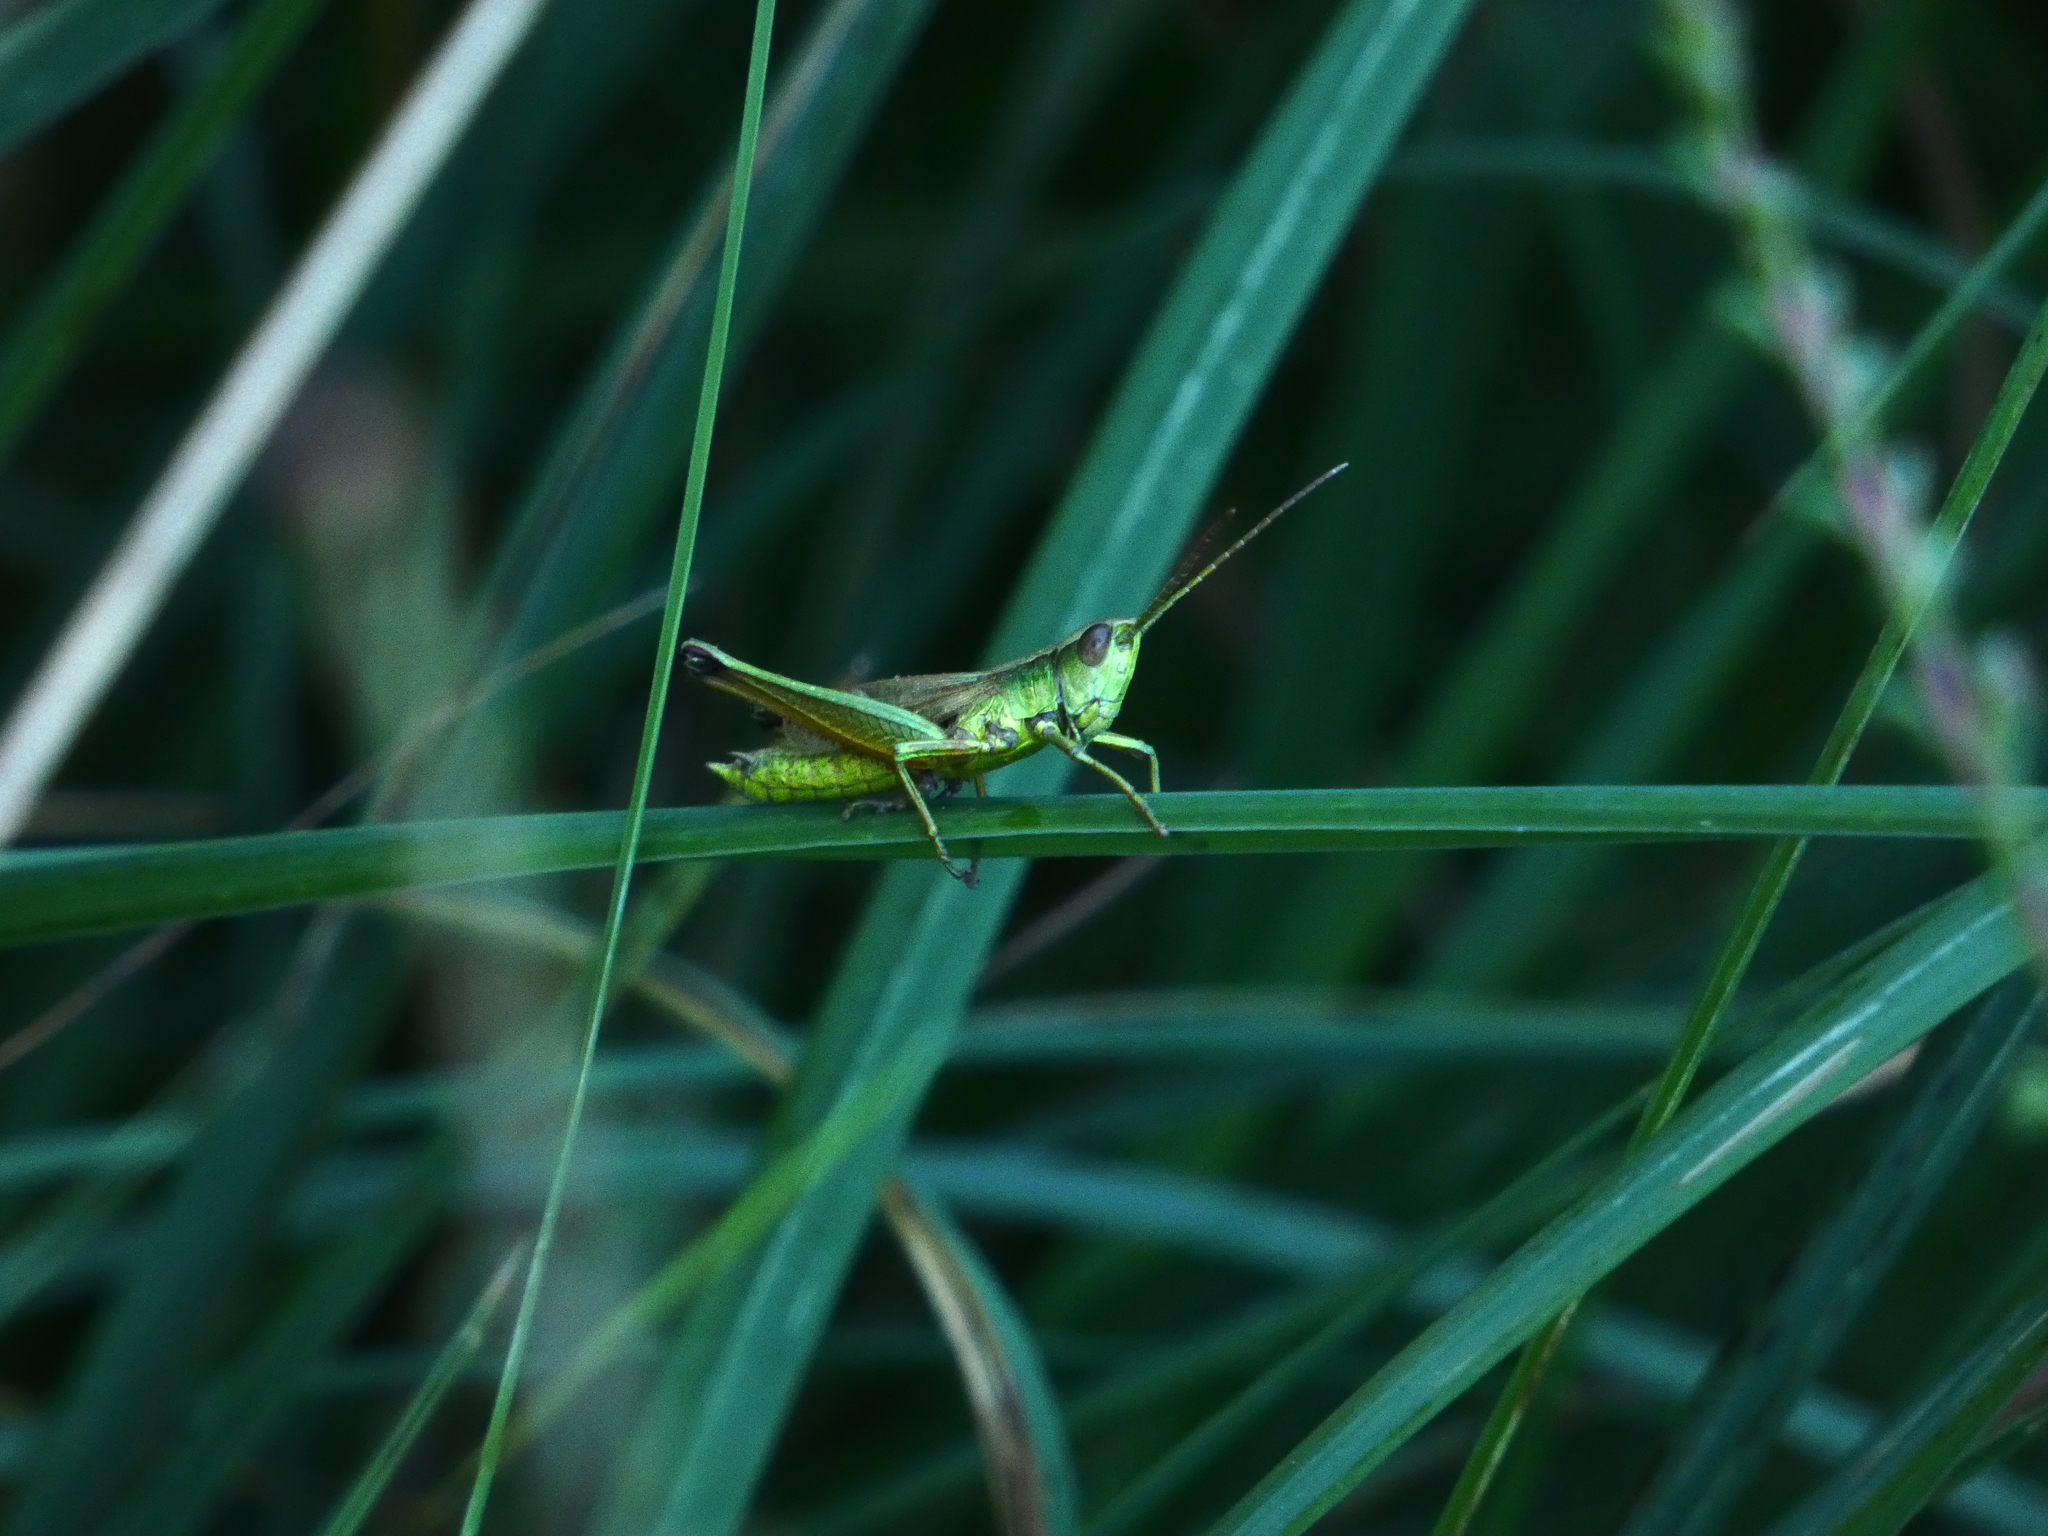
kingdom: Animalia
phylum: Arthropoda
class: Insecta
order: Orthoptera
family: Acrididae
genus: Chrysochraon
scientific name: Chrysochraon dispar
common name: Large gold grasshopper
